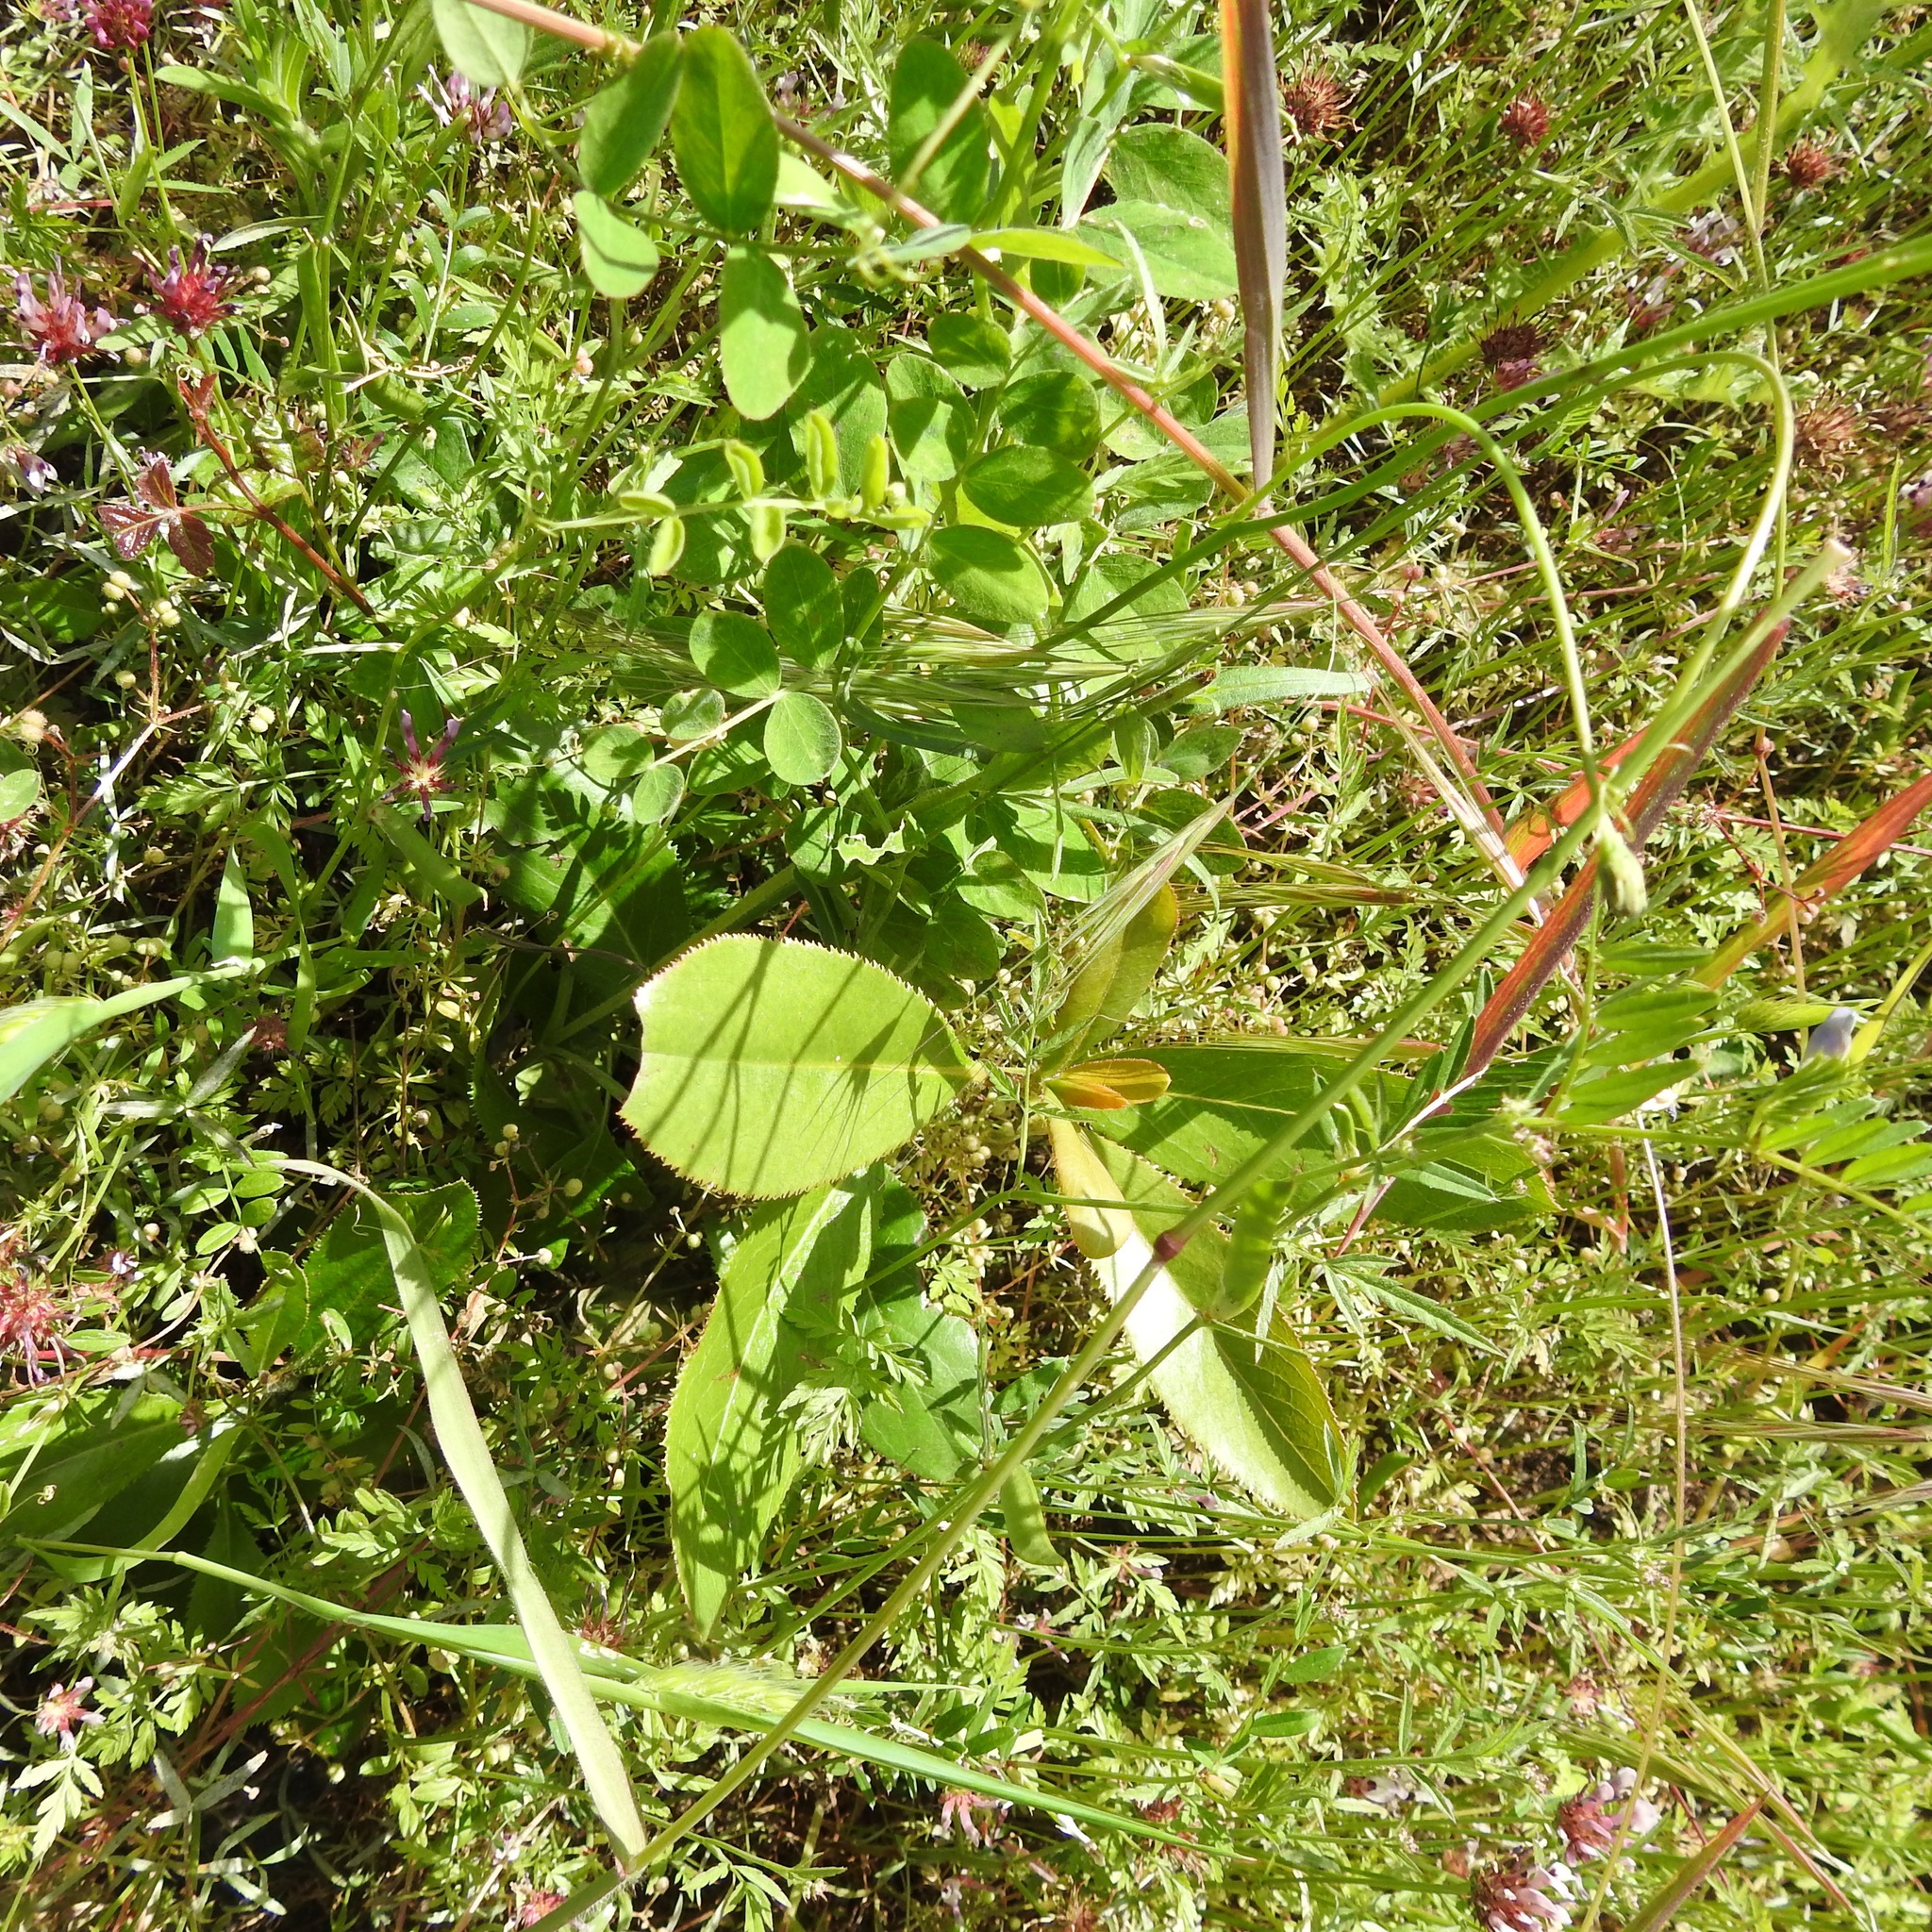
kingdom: Plantae
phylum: Tracheophyta
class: Magnoliopsida
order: Ericales
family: Ericaceae
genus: Arbutus
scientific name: Arbutus menziesii
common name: Pacific madrone
